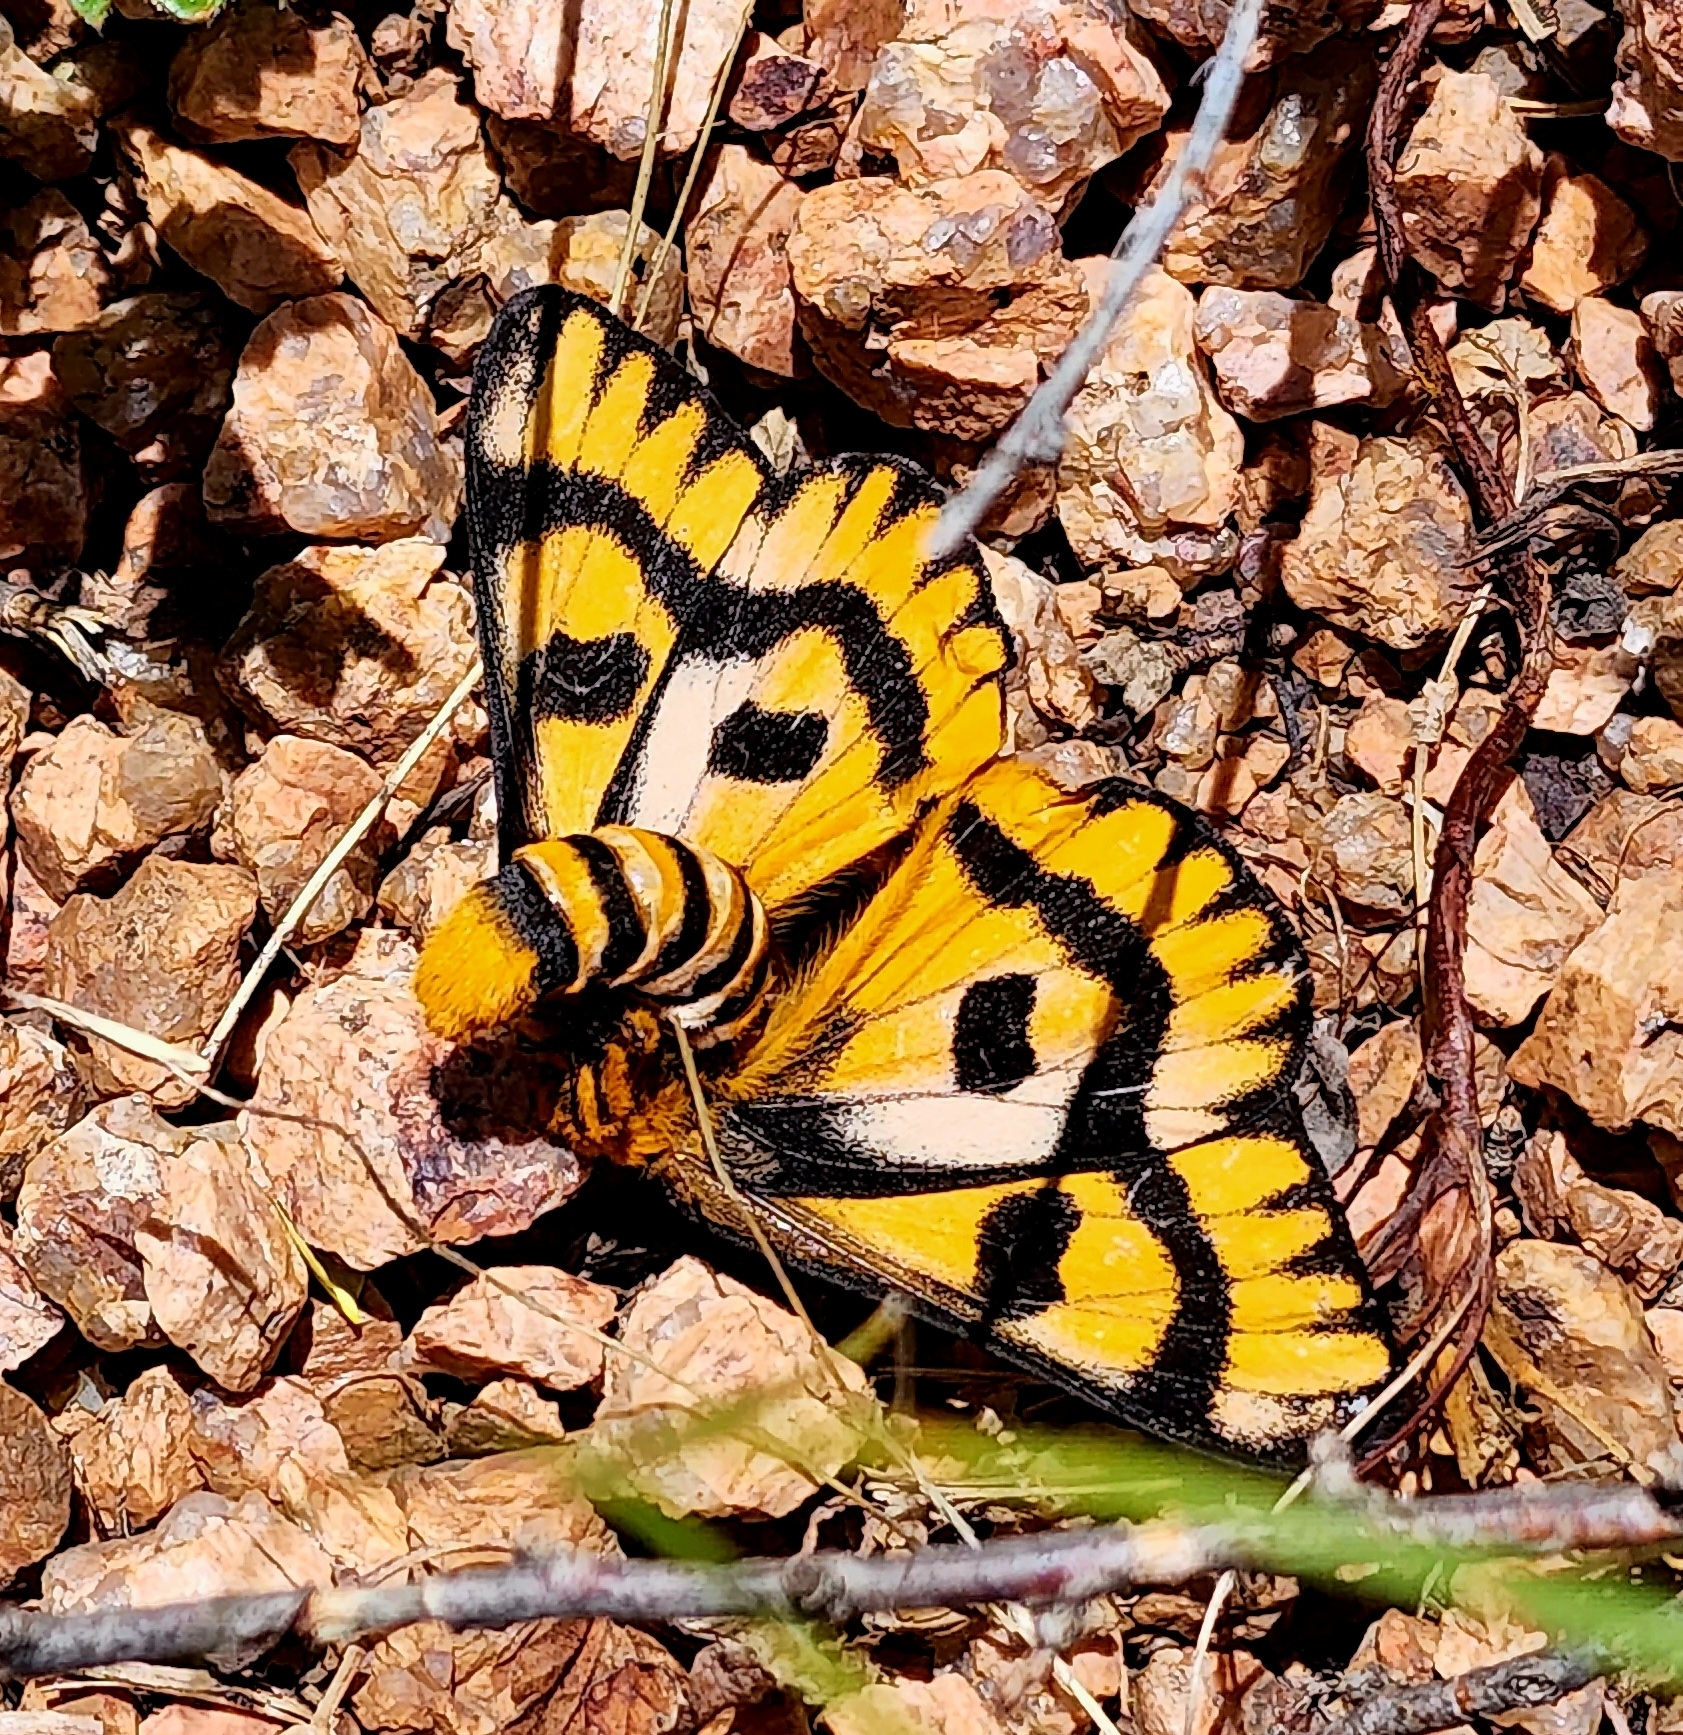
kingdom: Animalia
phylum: Arthropoda
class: Insecta
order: Lepidoptera
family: Saturniidae
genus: Hemileuca
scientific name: Hemileuca eglanterina
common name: Western sheepmoth
